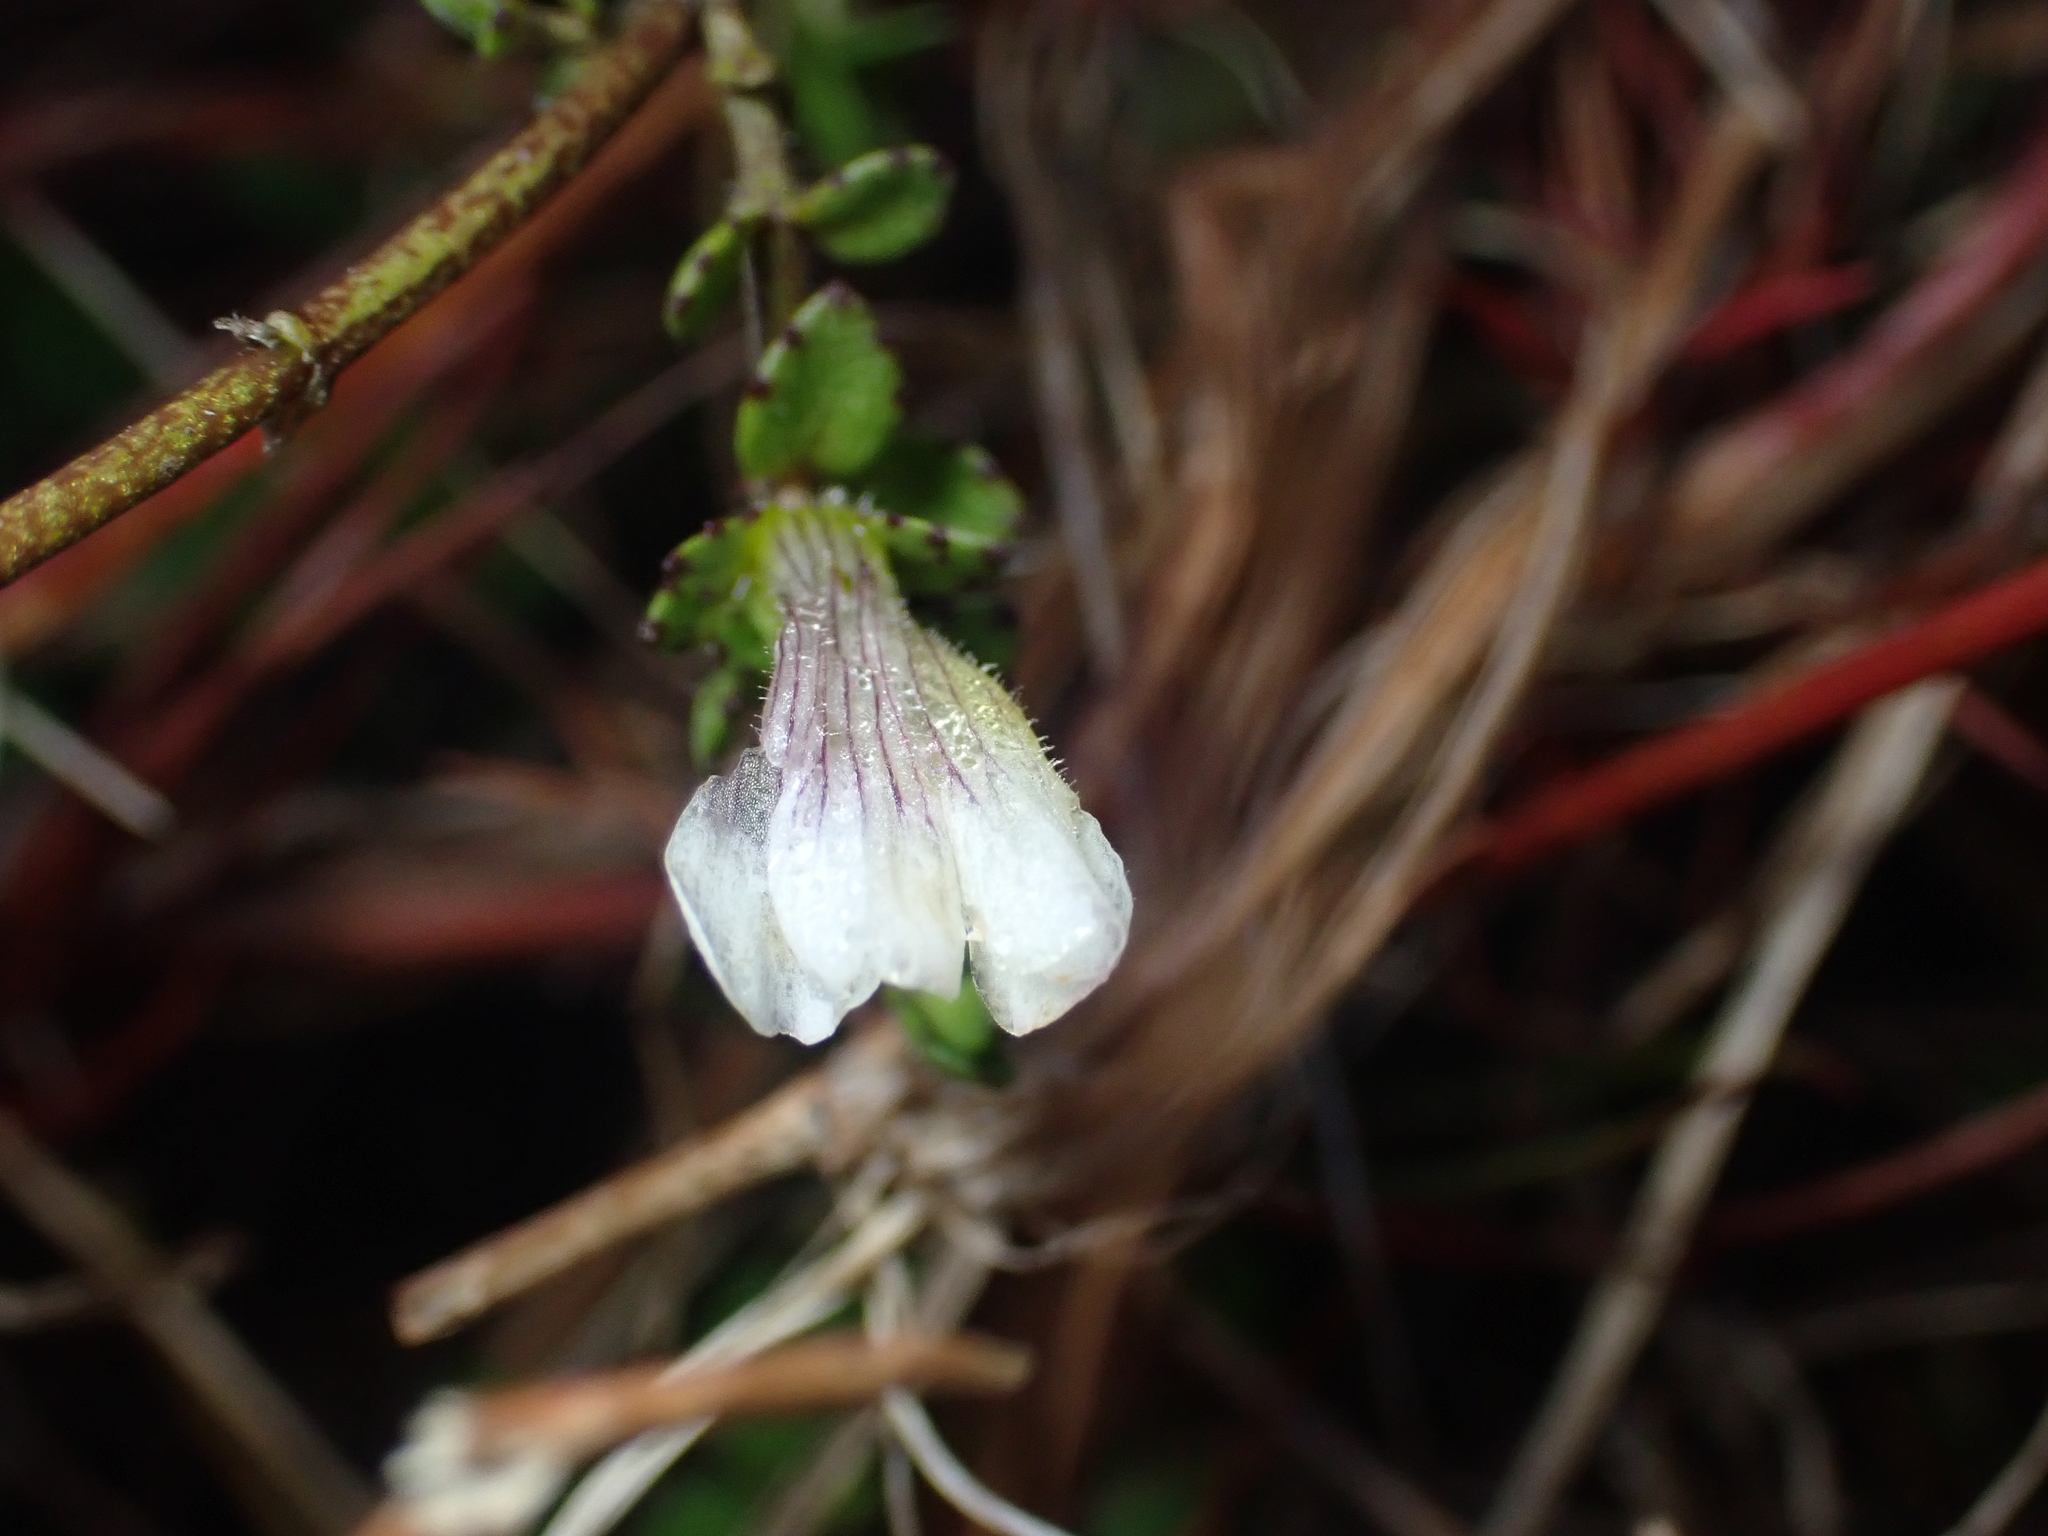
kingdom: Plantae
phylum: Tracheophyta
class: Magnoliopsida
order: Lamiales
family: Plantaginaceae
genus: Gratiola
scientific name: Gratiola nana
